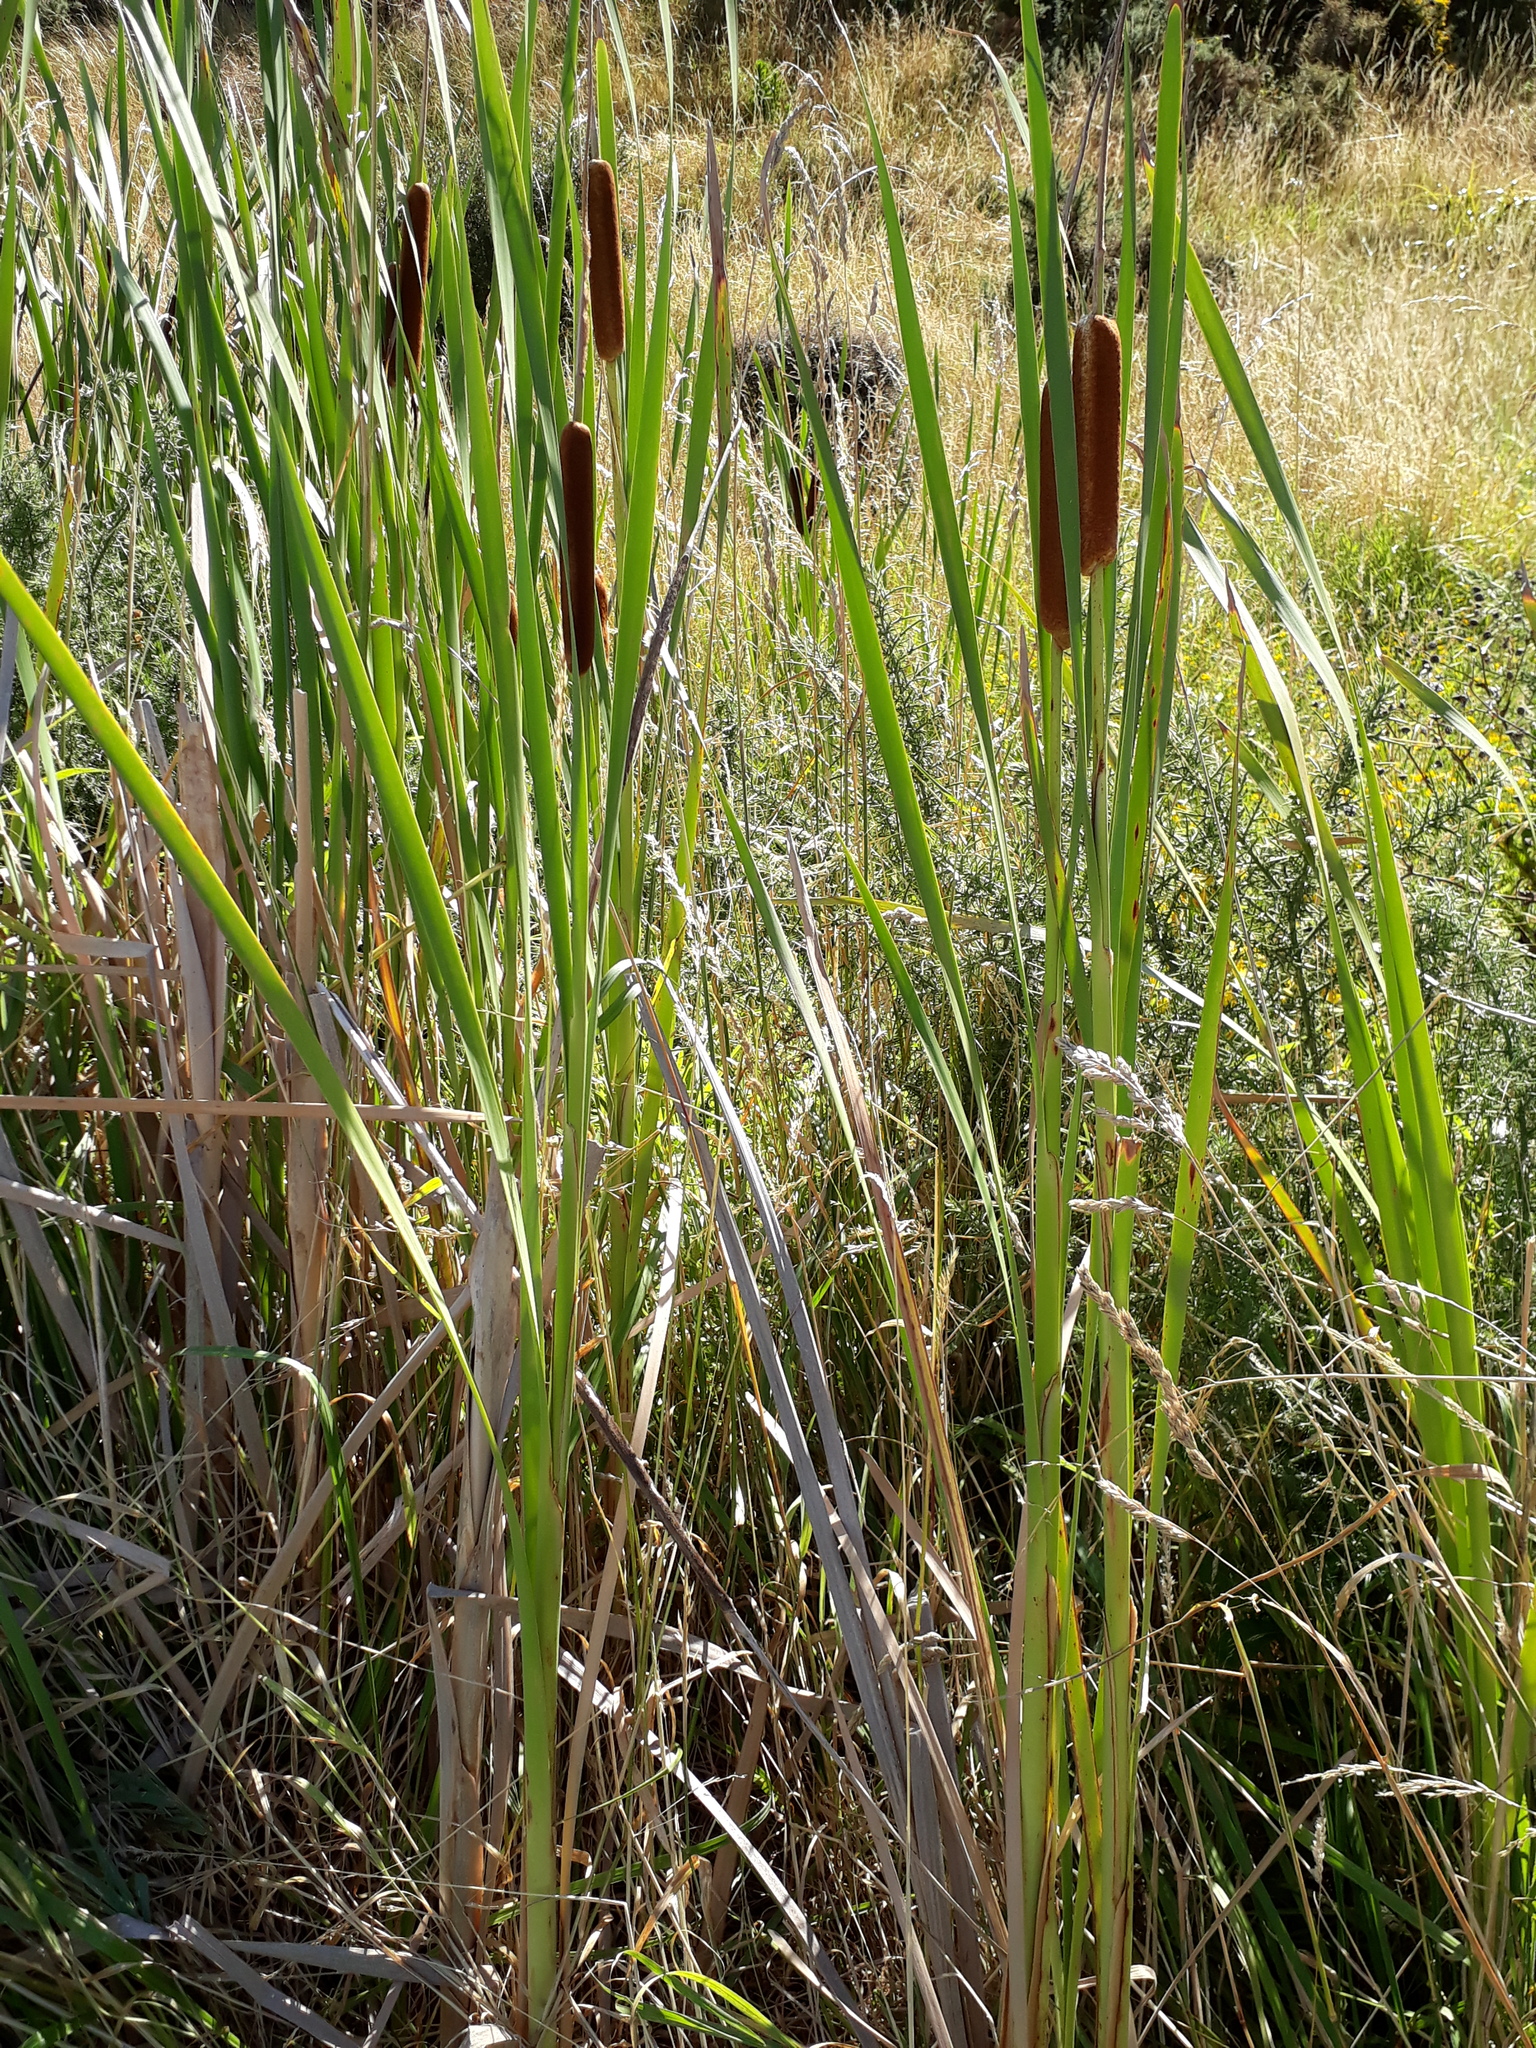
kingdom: Plantae
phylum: Tracheophyta
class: Liliopsida
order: Poales
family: Typhaceae
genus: Typha
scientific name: Typha orientalis
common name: Bullrush
